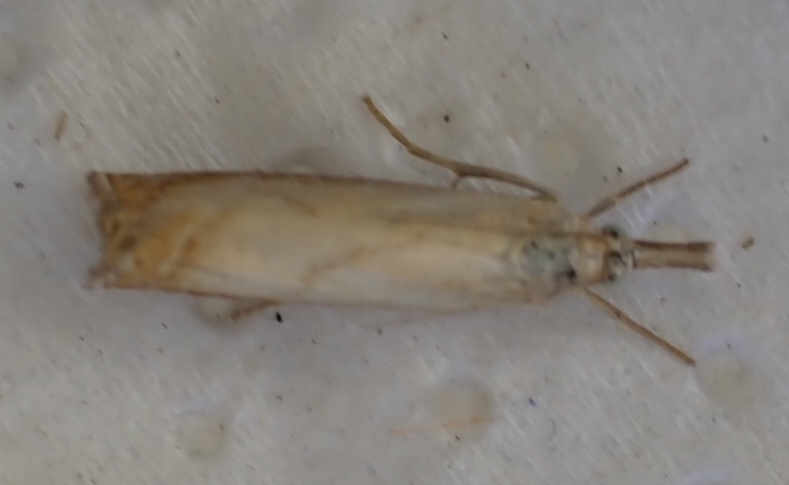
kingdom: Animalia
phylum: Arthropoda
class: Insecta
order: Lepidoptera
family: Crambidae
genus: Chrysoteuchia
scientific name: Chrysoteuchia culmella
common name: Garden grass-veneer
